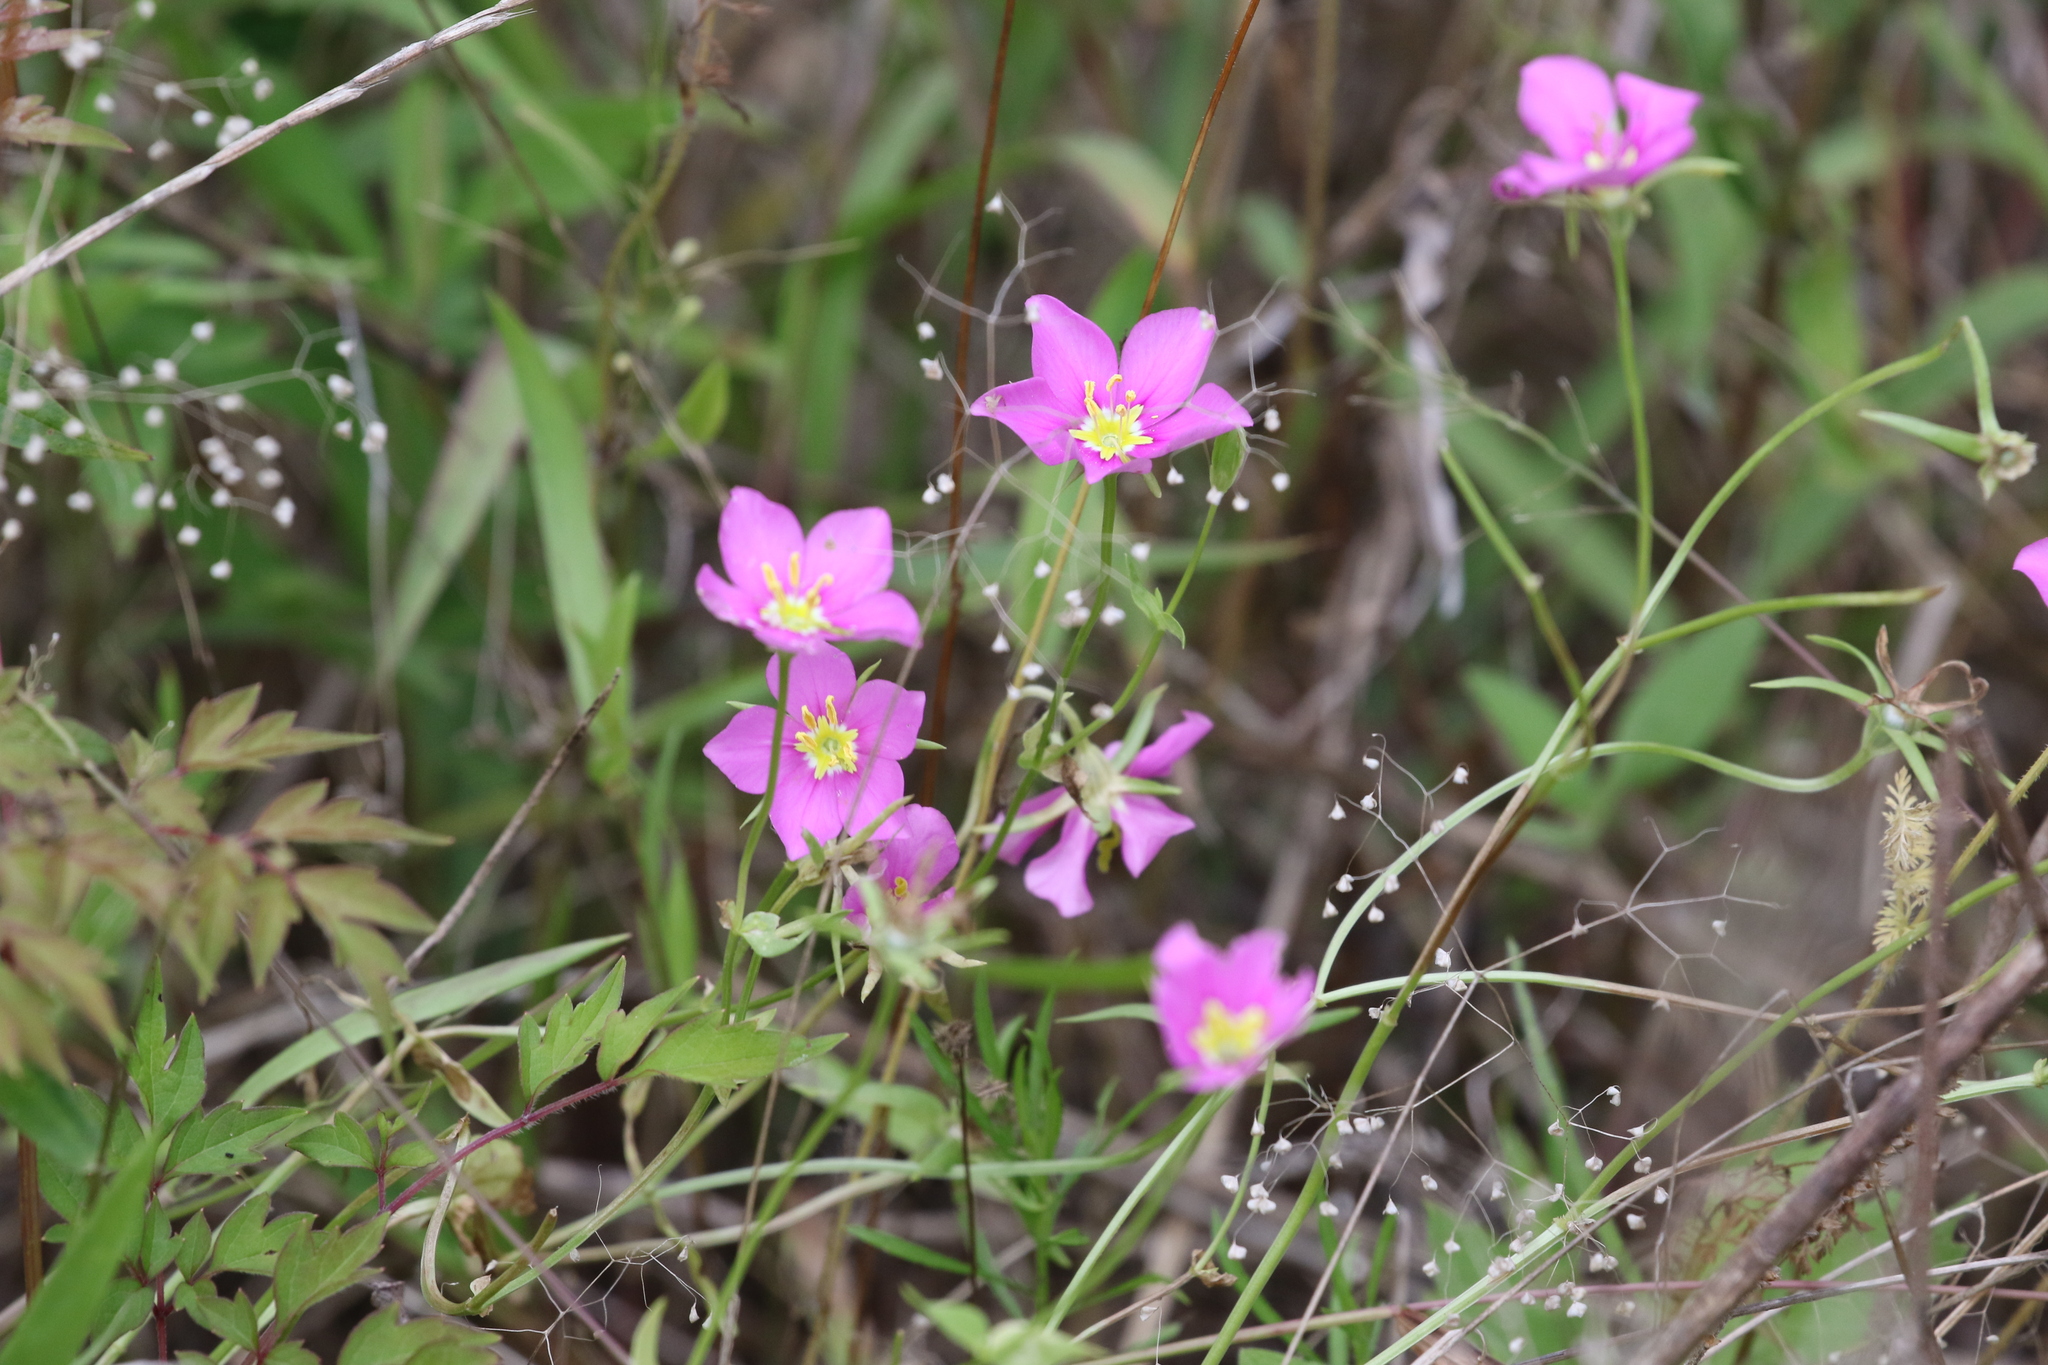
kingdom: Plantae
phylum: Tracheophyta
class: Magnoliopsida
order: Gentianales
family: Gentianaceae
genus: Sabatia
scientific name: Sabatia campestris
